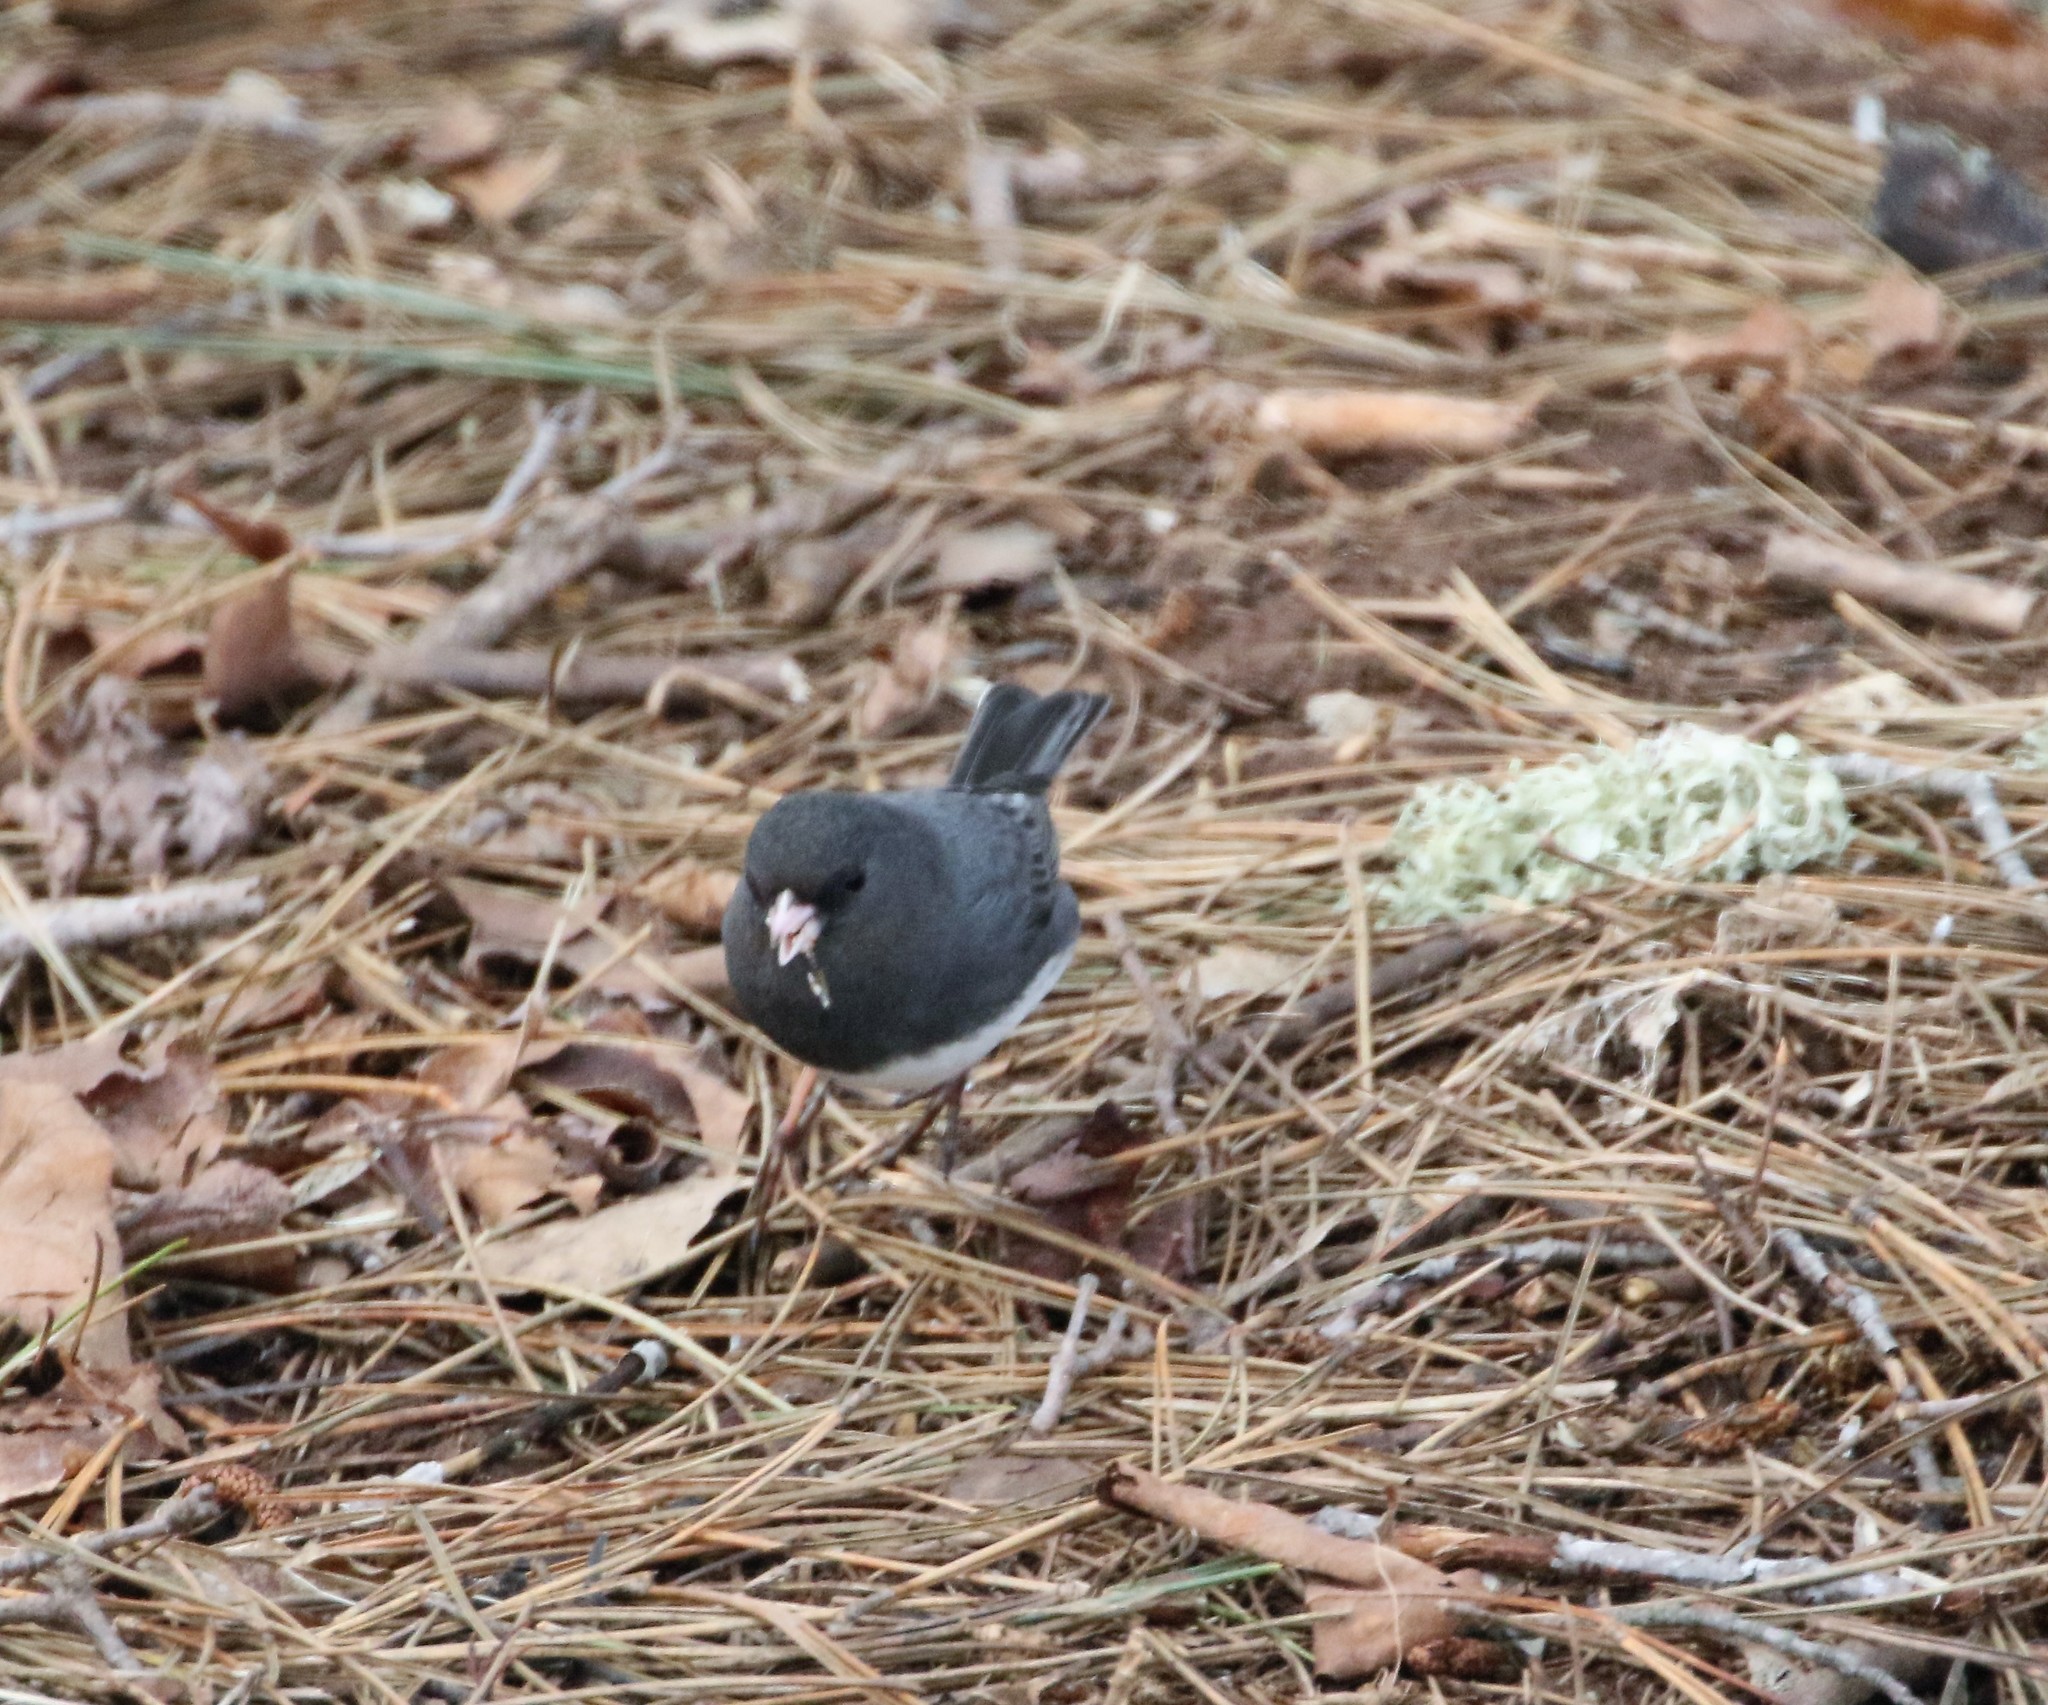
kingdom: Animalia
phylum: Chordata
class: Aves
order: Passeriformes
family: Passerellidae
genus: Junco
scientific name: Junco hyemalis
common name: Dark-eyed junco
